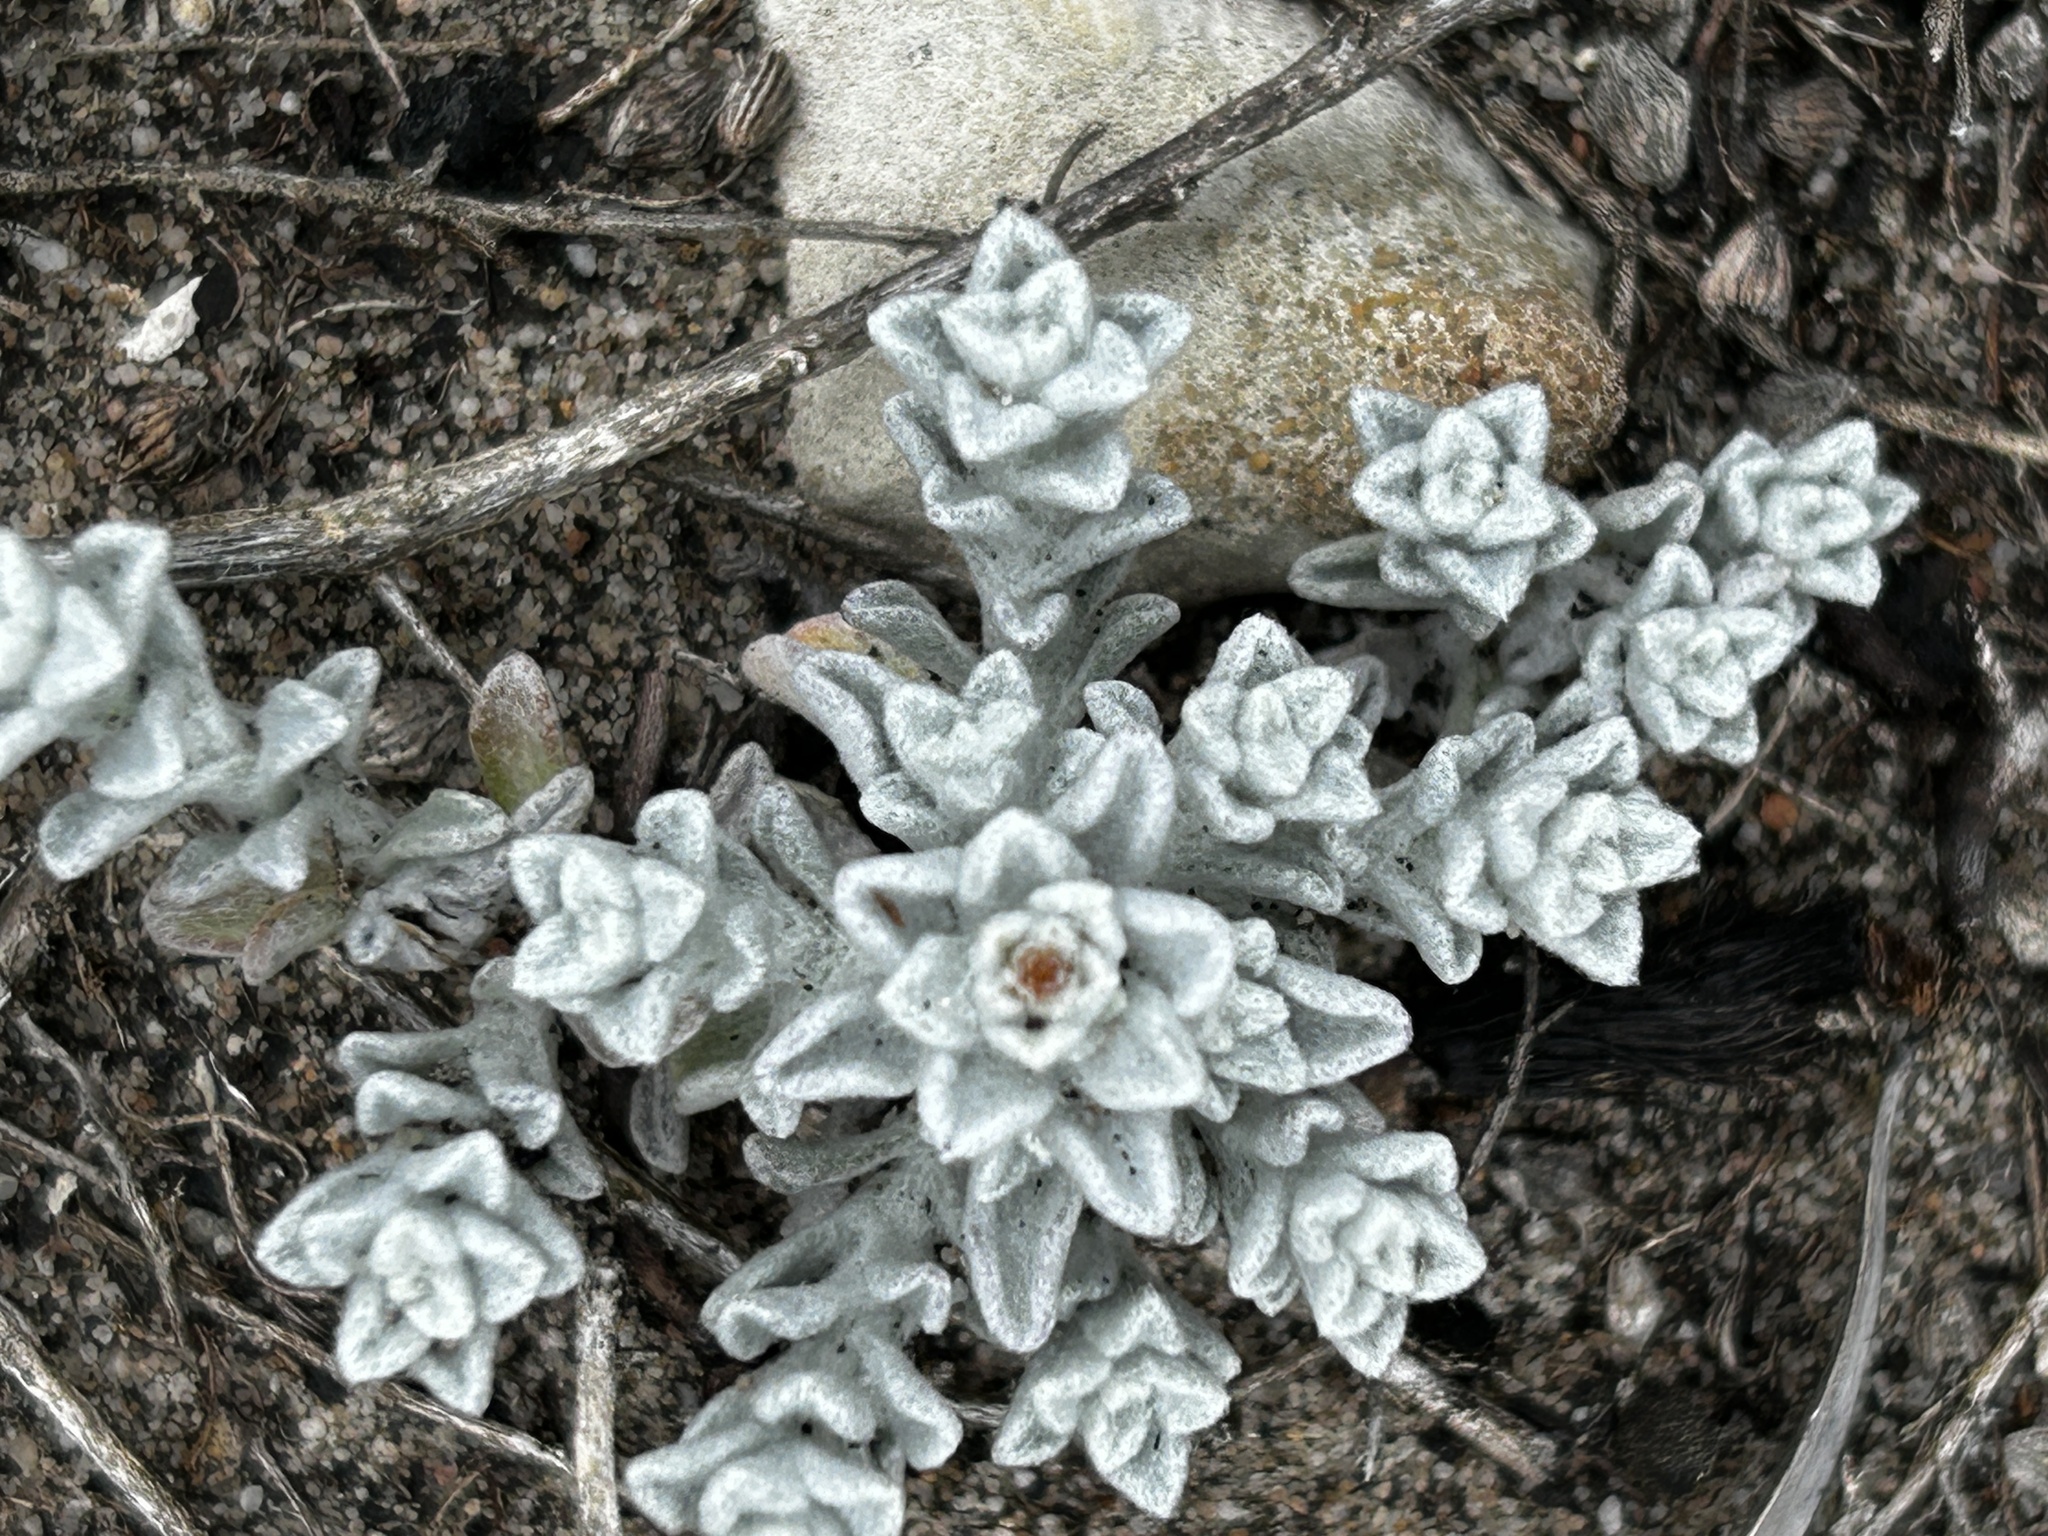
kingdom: Plantae
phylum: Tracheophyta
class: Magnoliopsida
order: Asterales
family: Asteraceae
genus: Helichrysum
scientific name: Helichrysum litorale
